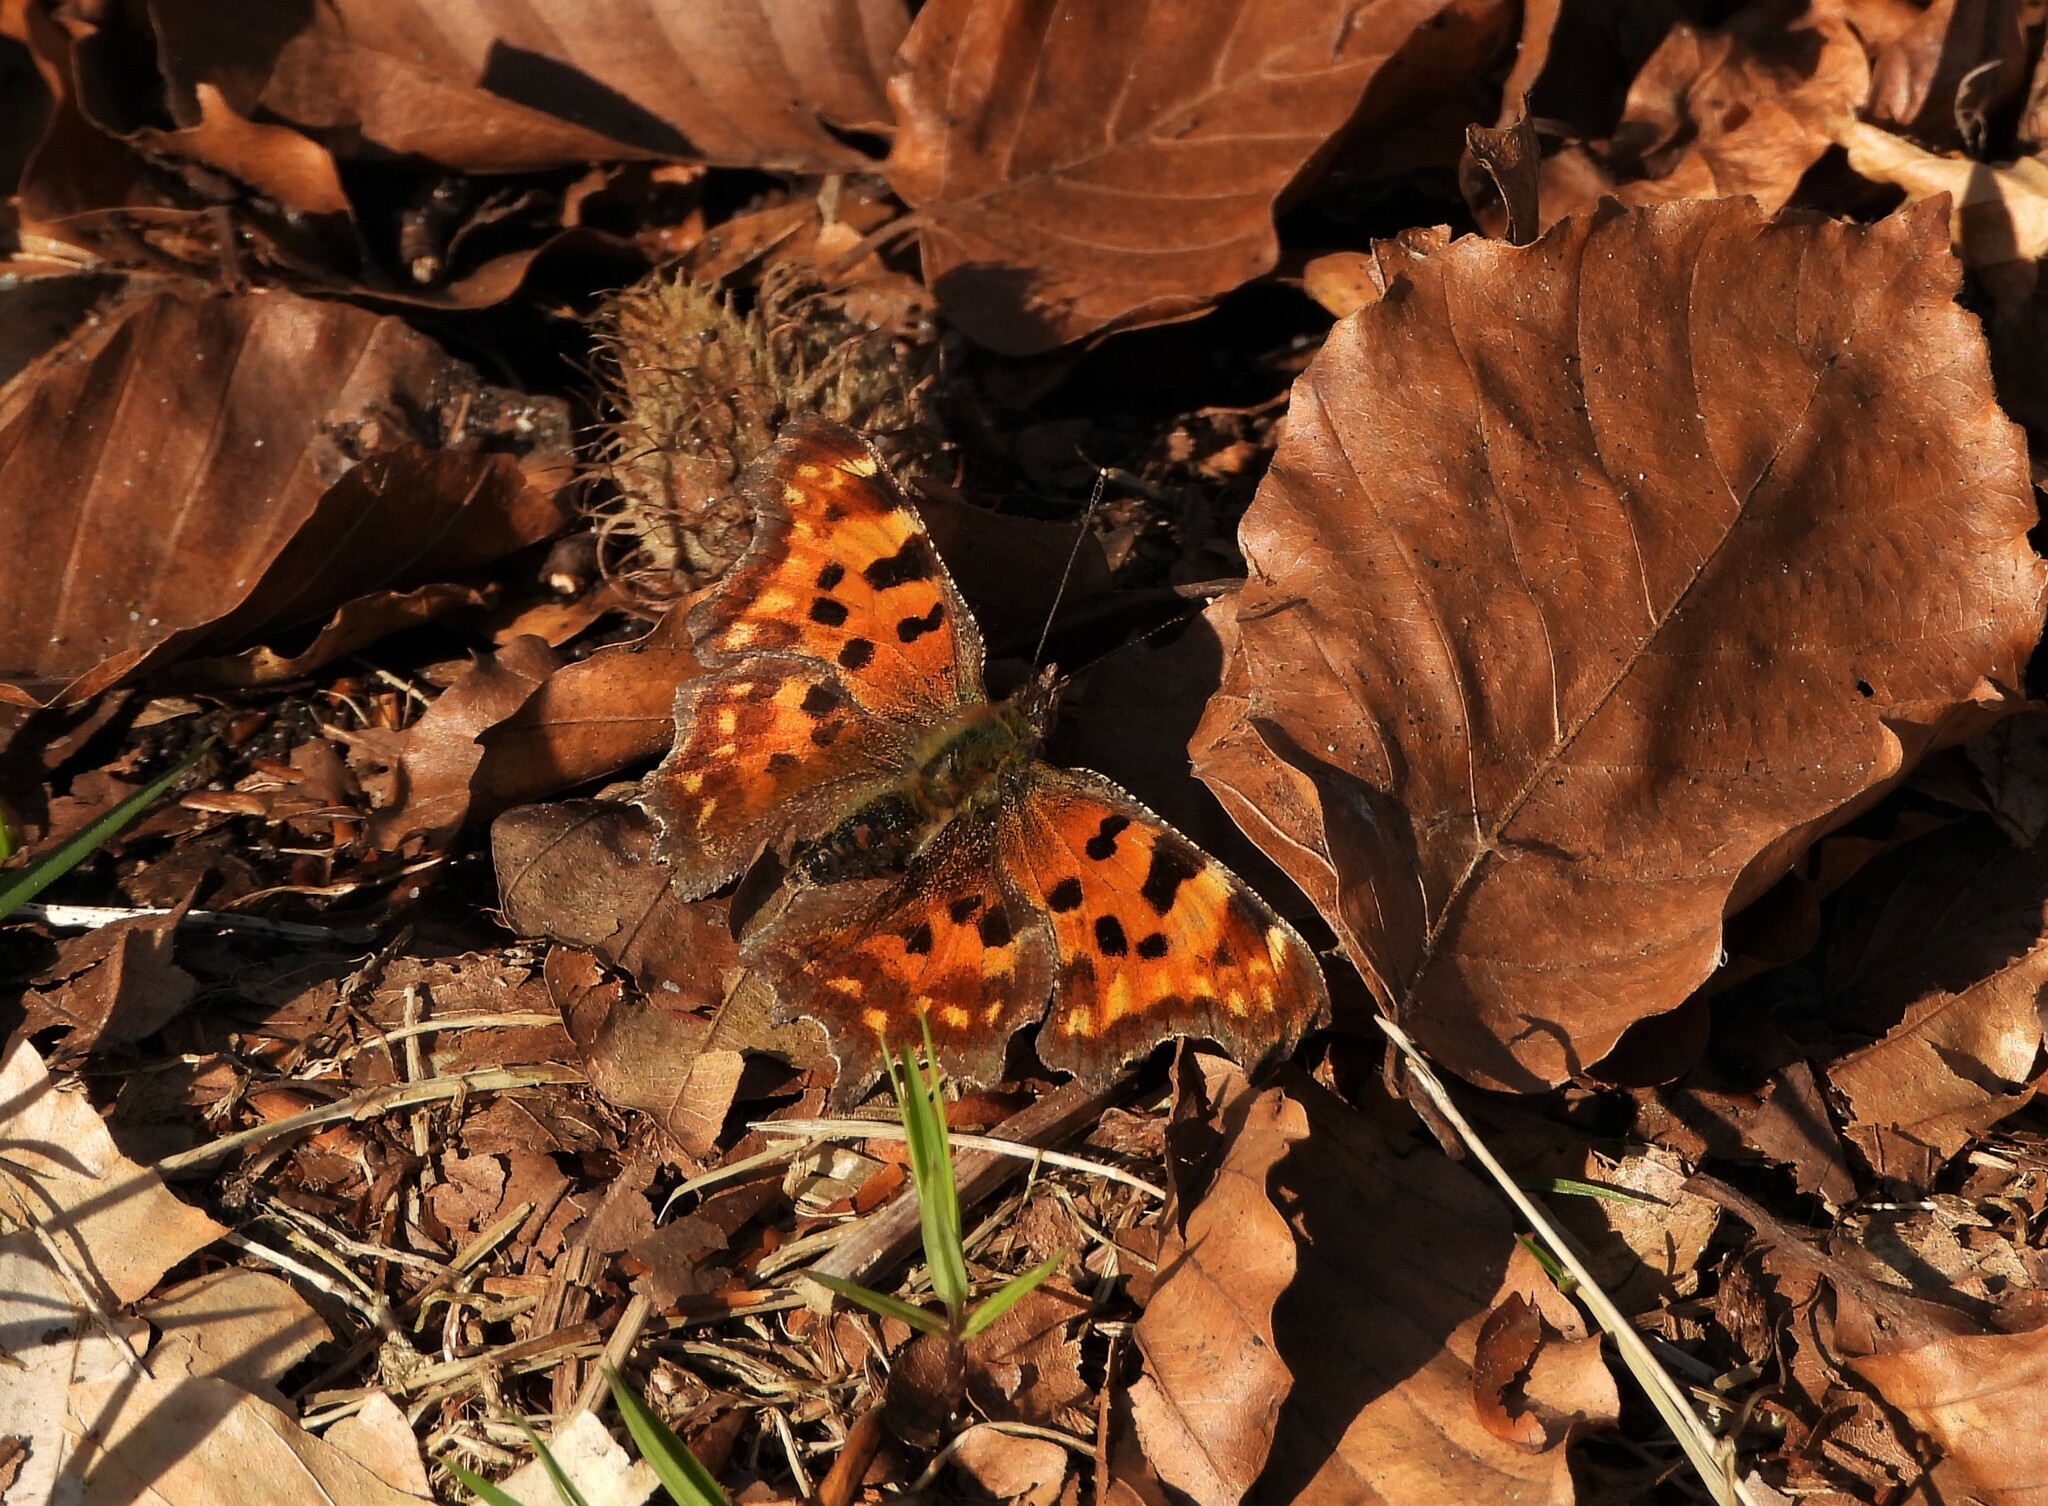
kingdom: Animalia
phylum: Arthropoda
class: Insecta
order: Lepidoptera
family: Nymphalidae
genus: Polygonia
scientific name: Polygonia c-album
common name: Comma
